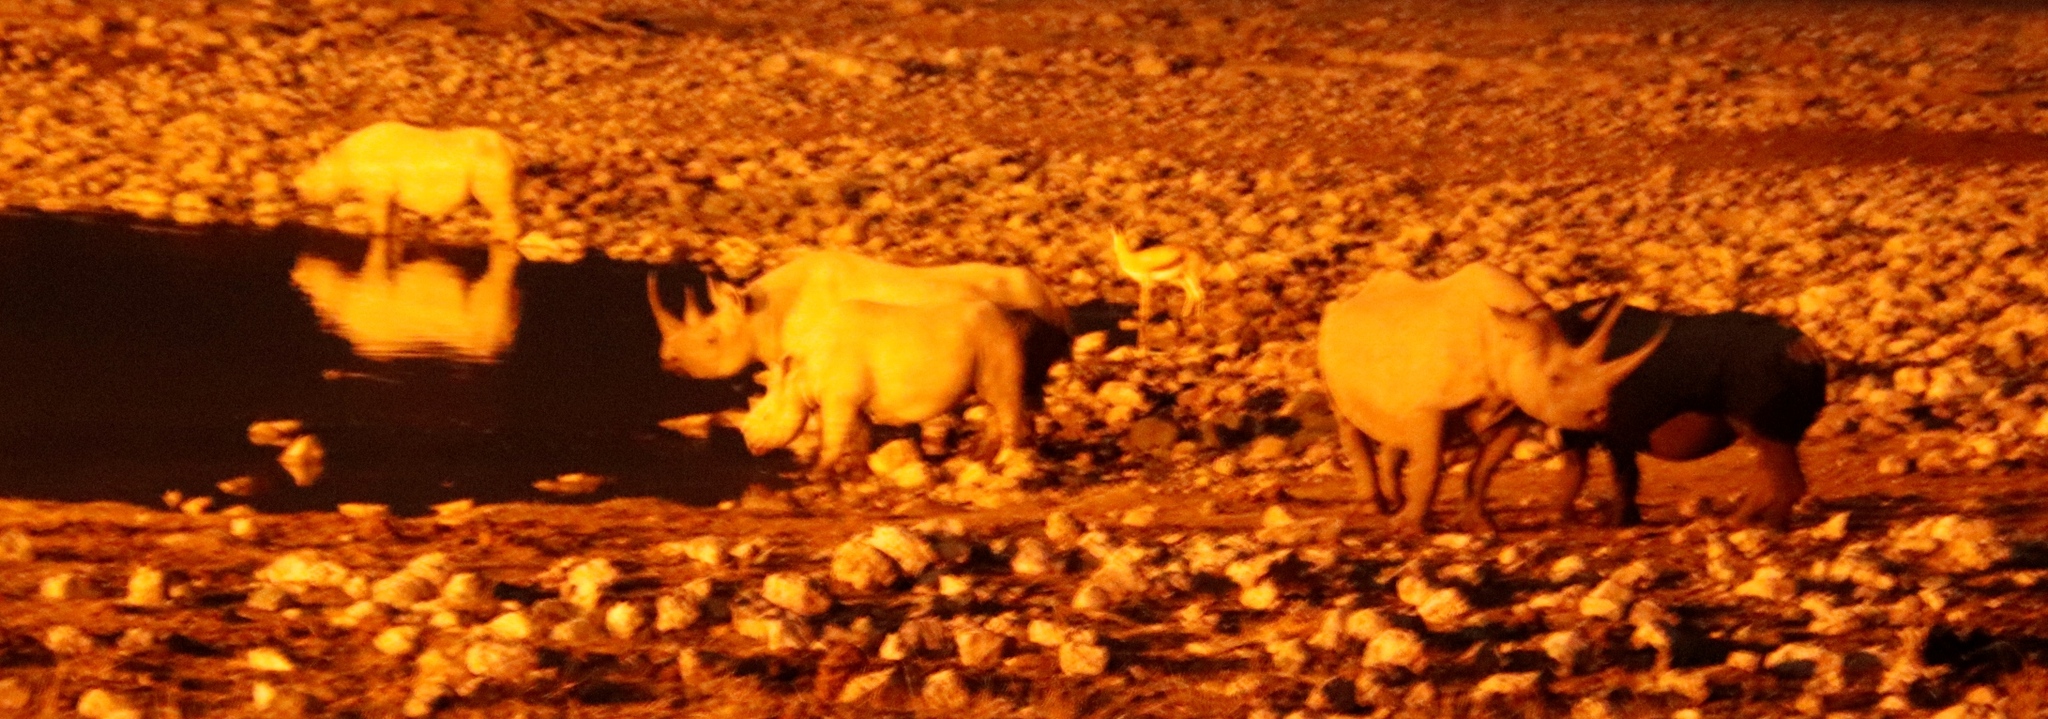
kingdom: Animalia
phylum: Chordata
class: Mammalia
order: Perissodactyla
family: Rhinocerotidae
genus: Diceros
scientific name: Diceros bicornis
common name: Black rhinoceros
